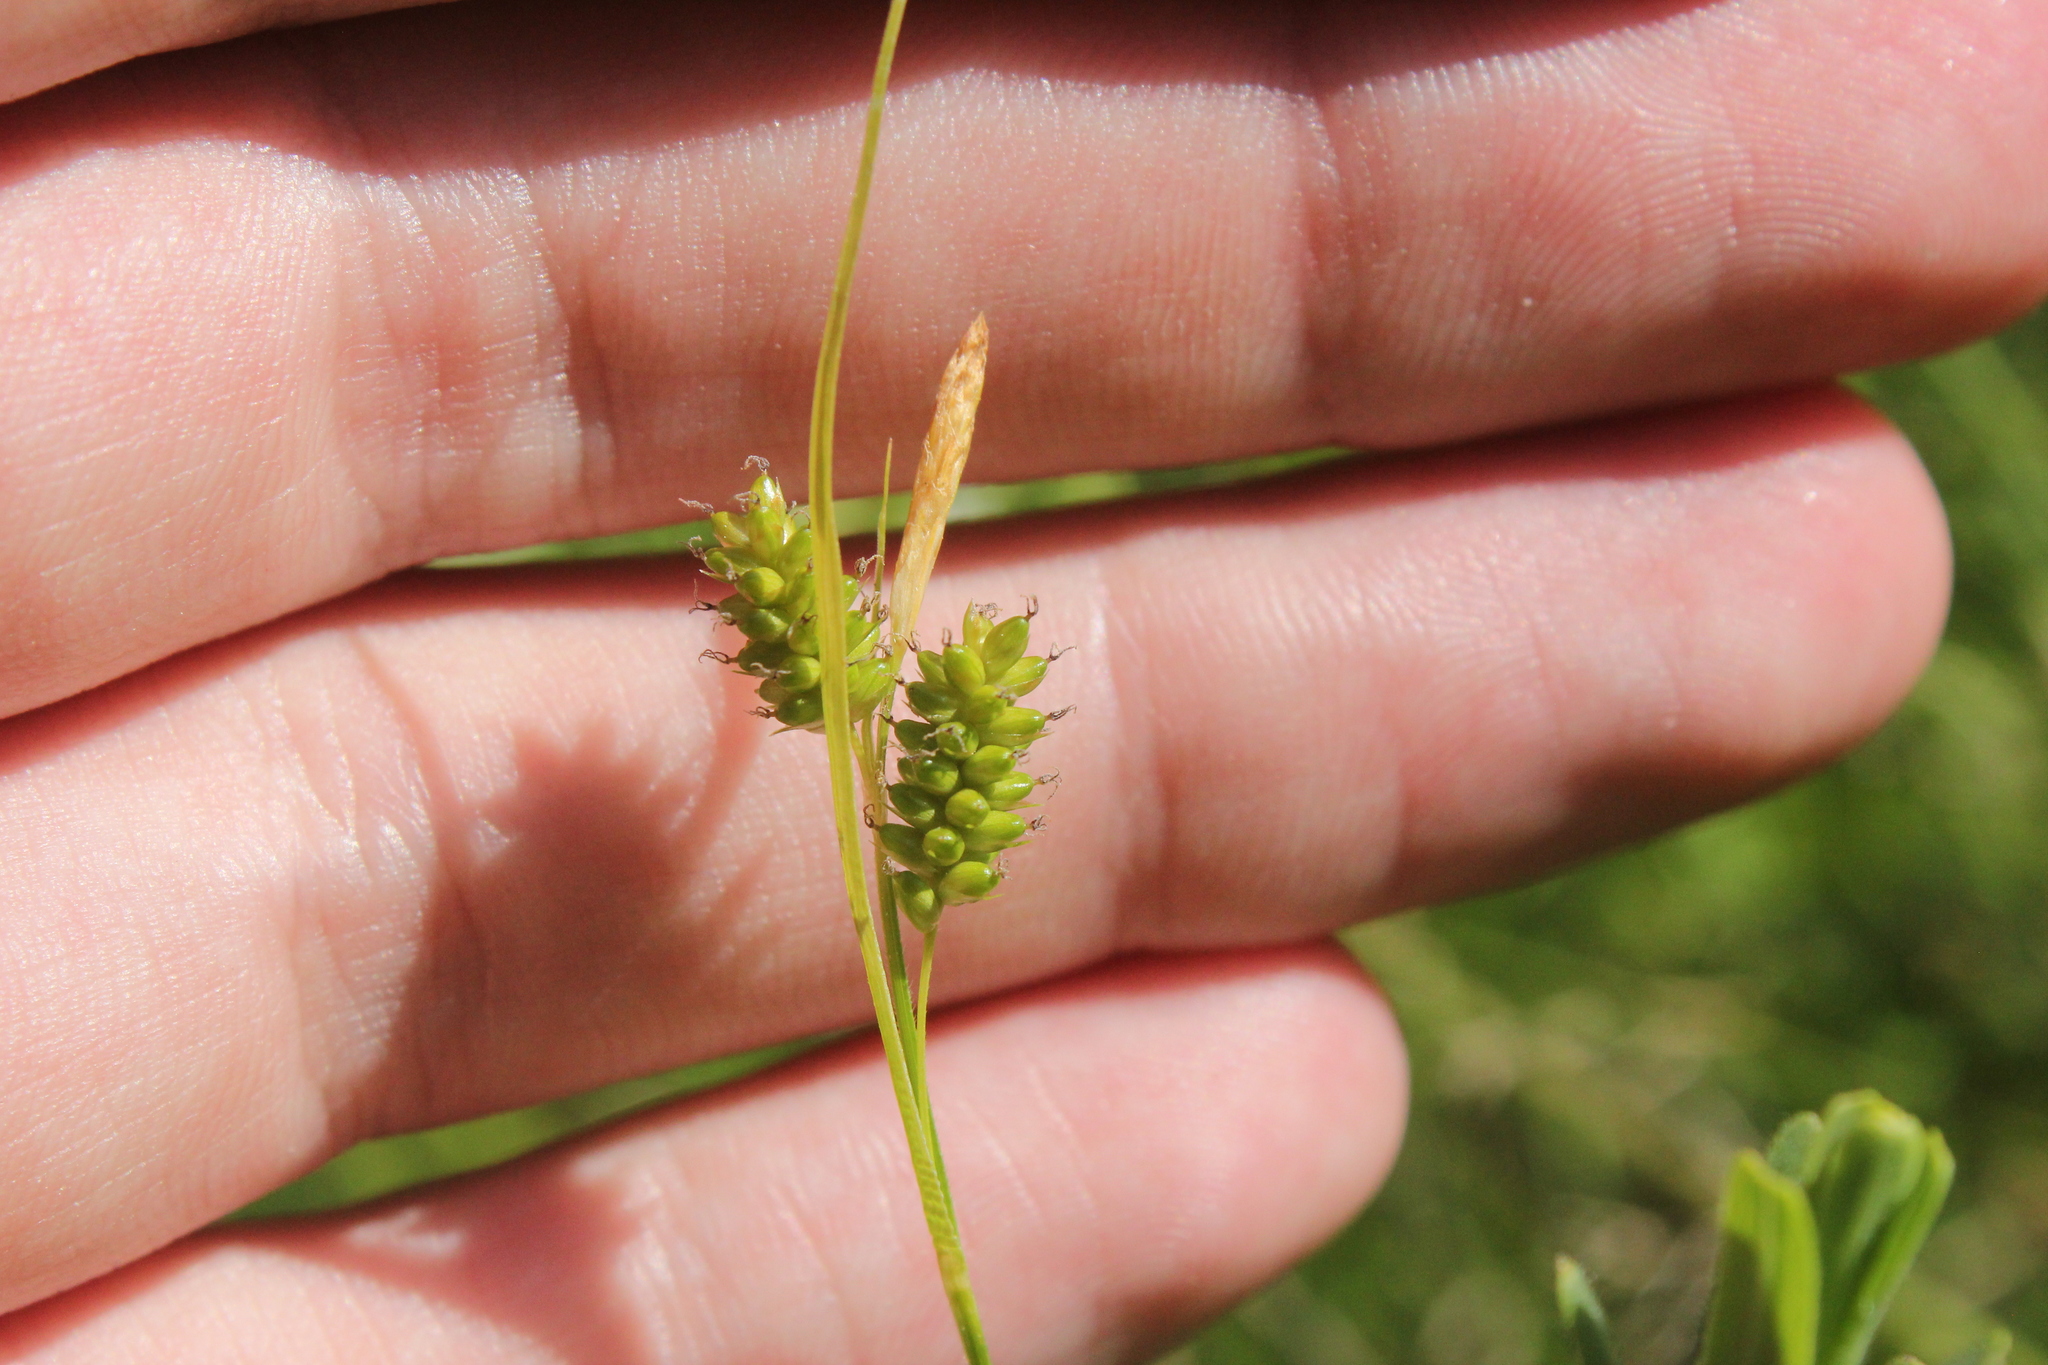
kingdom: Plantae
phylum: Tracheophyta
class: Liliopsida
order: Poales
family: Cyperaceae
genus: Carex
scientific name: Carex pallescens
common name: Pale sedge
